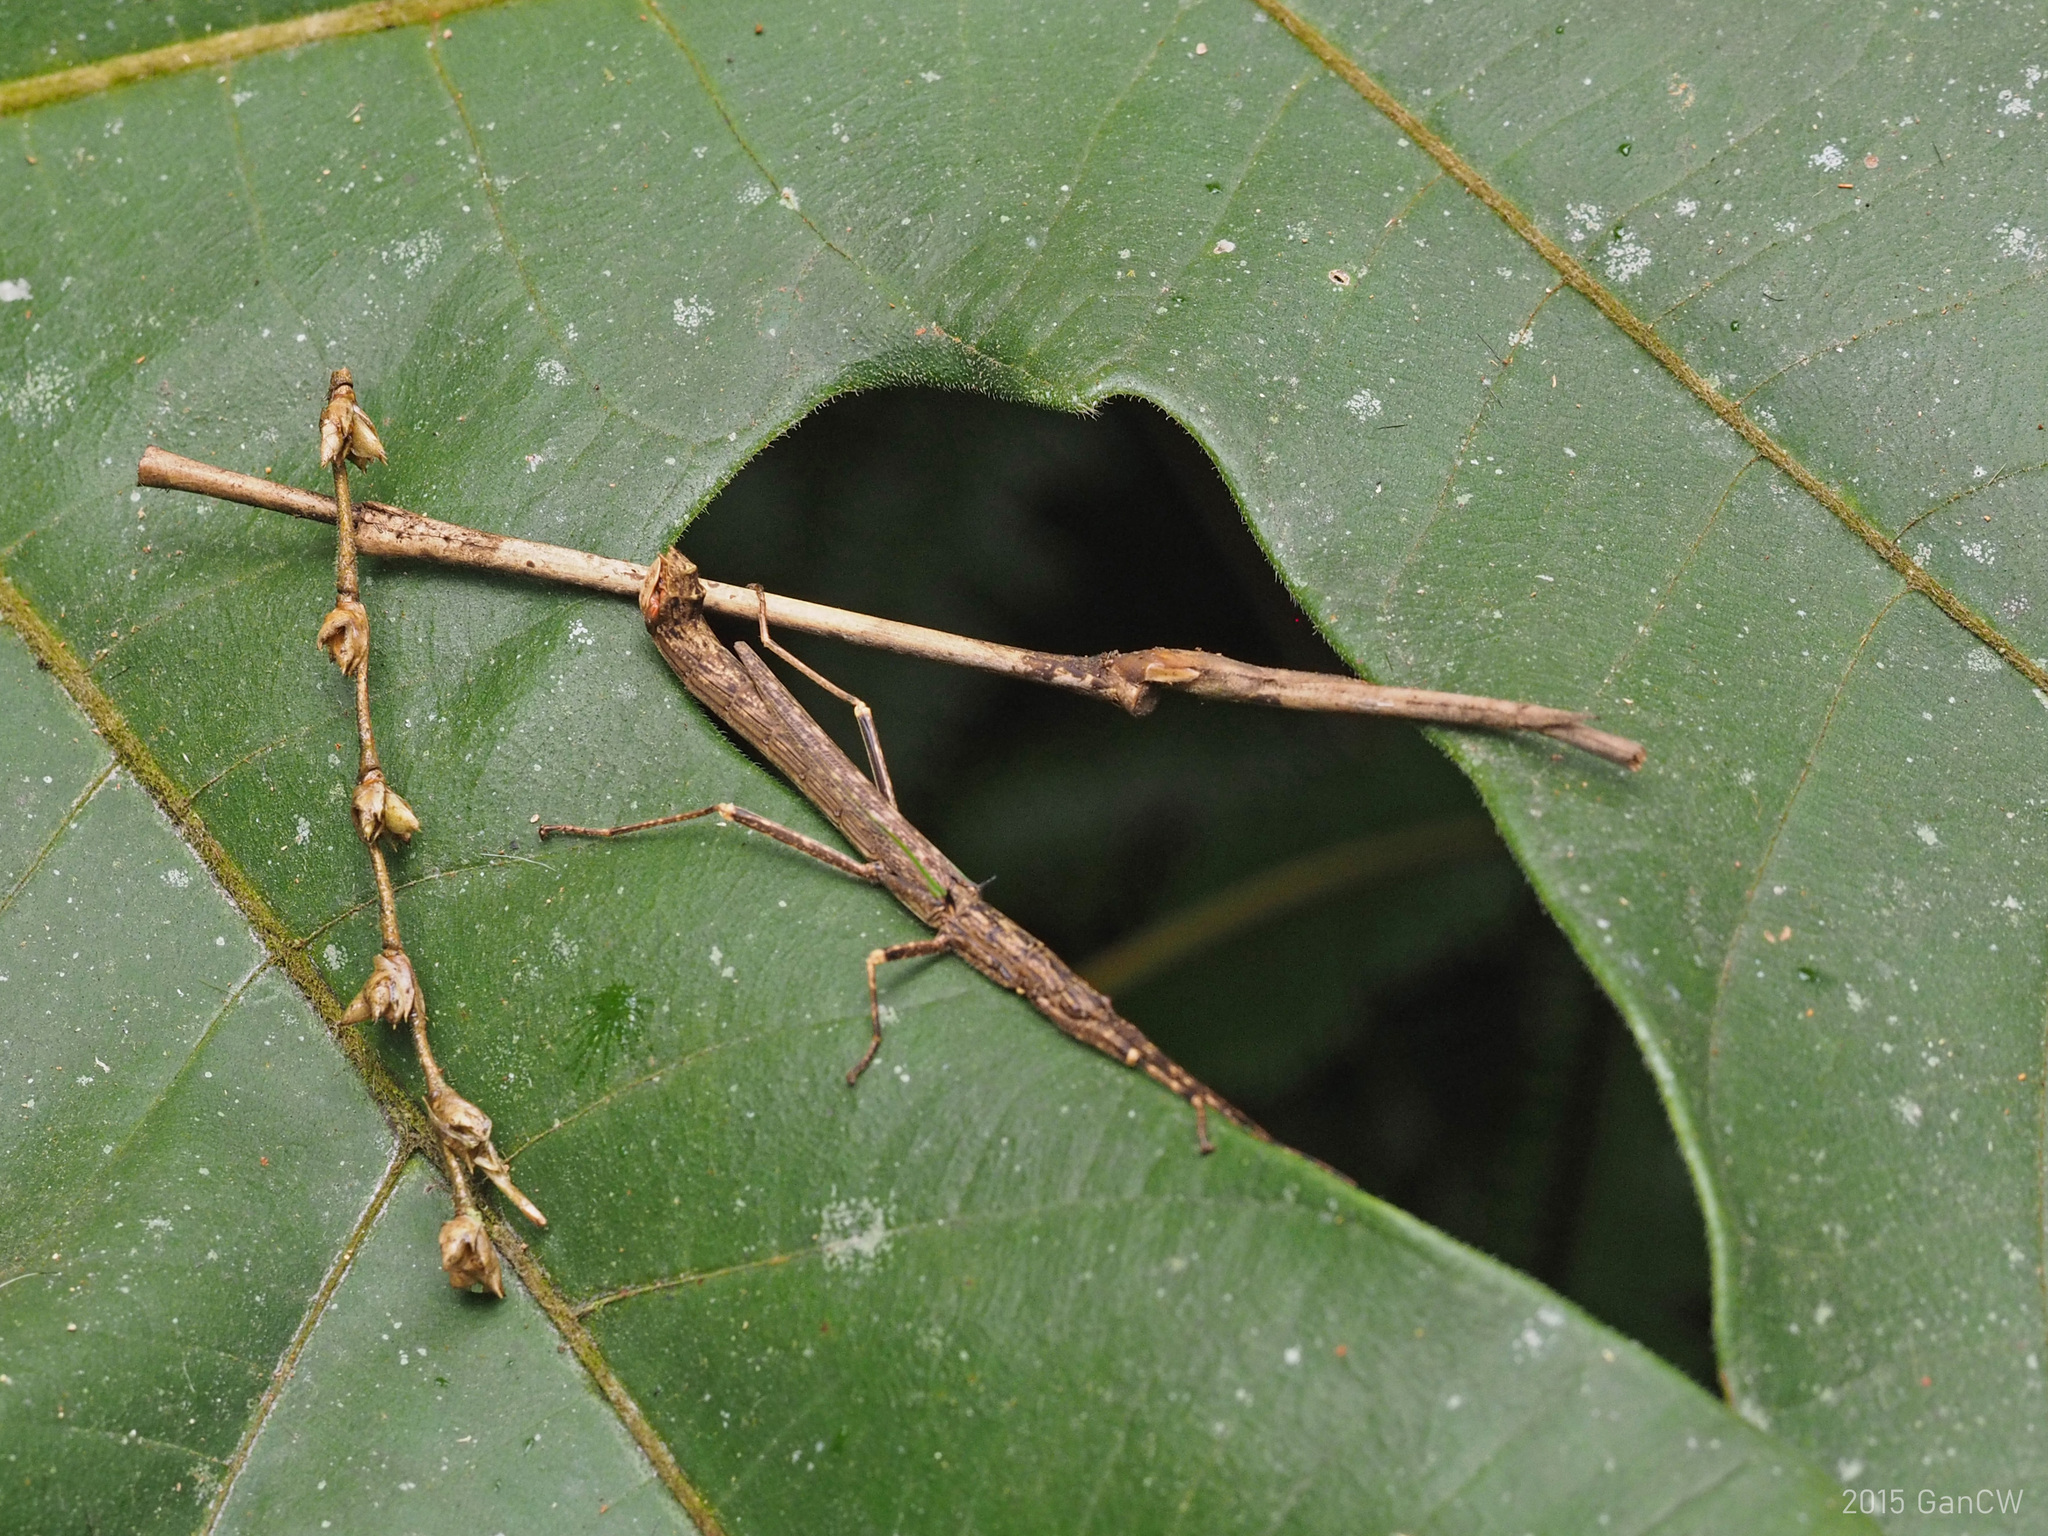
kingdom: Animalia
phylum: Arthropoda
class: Insecta
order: Phasmida
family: Aschiphasmatidae
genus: Presbistus
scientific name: Presbistus peleus
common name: Green striped flying stick
